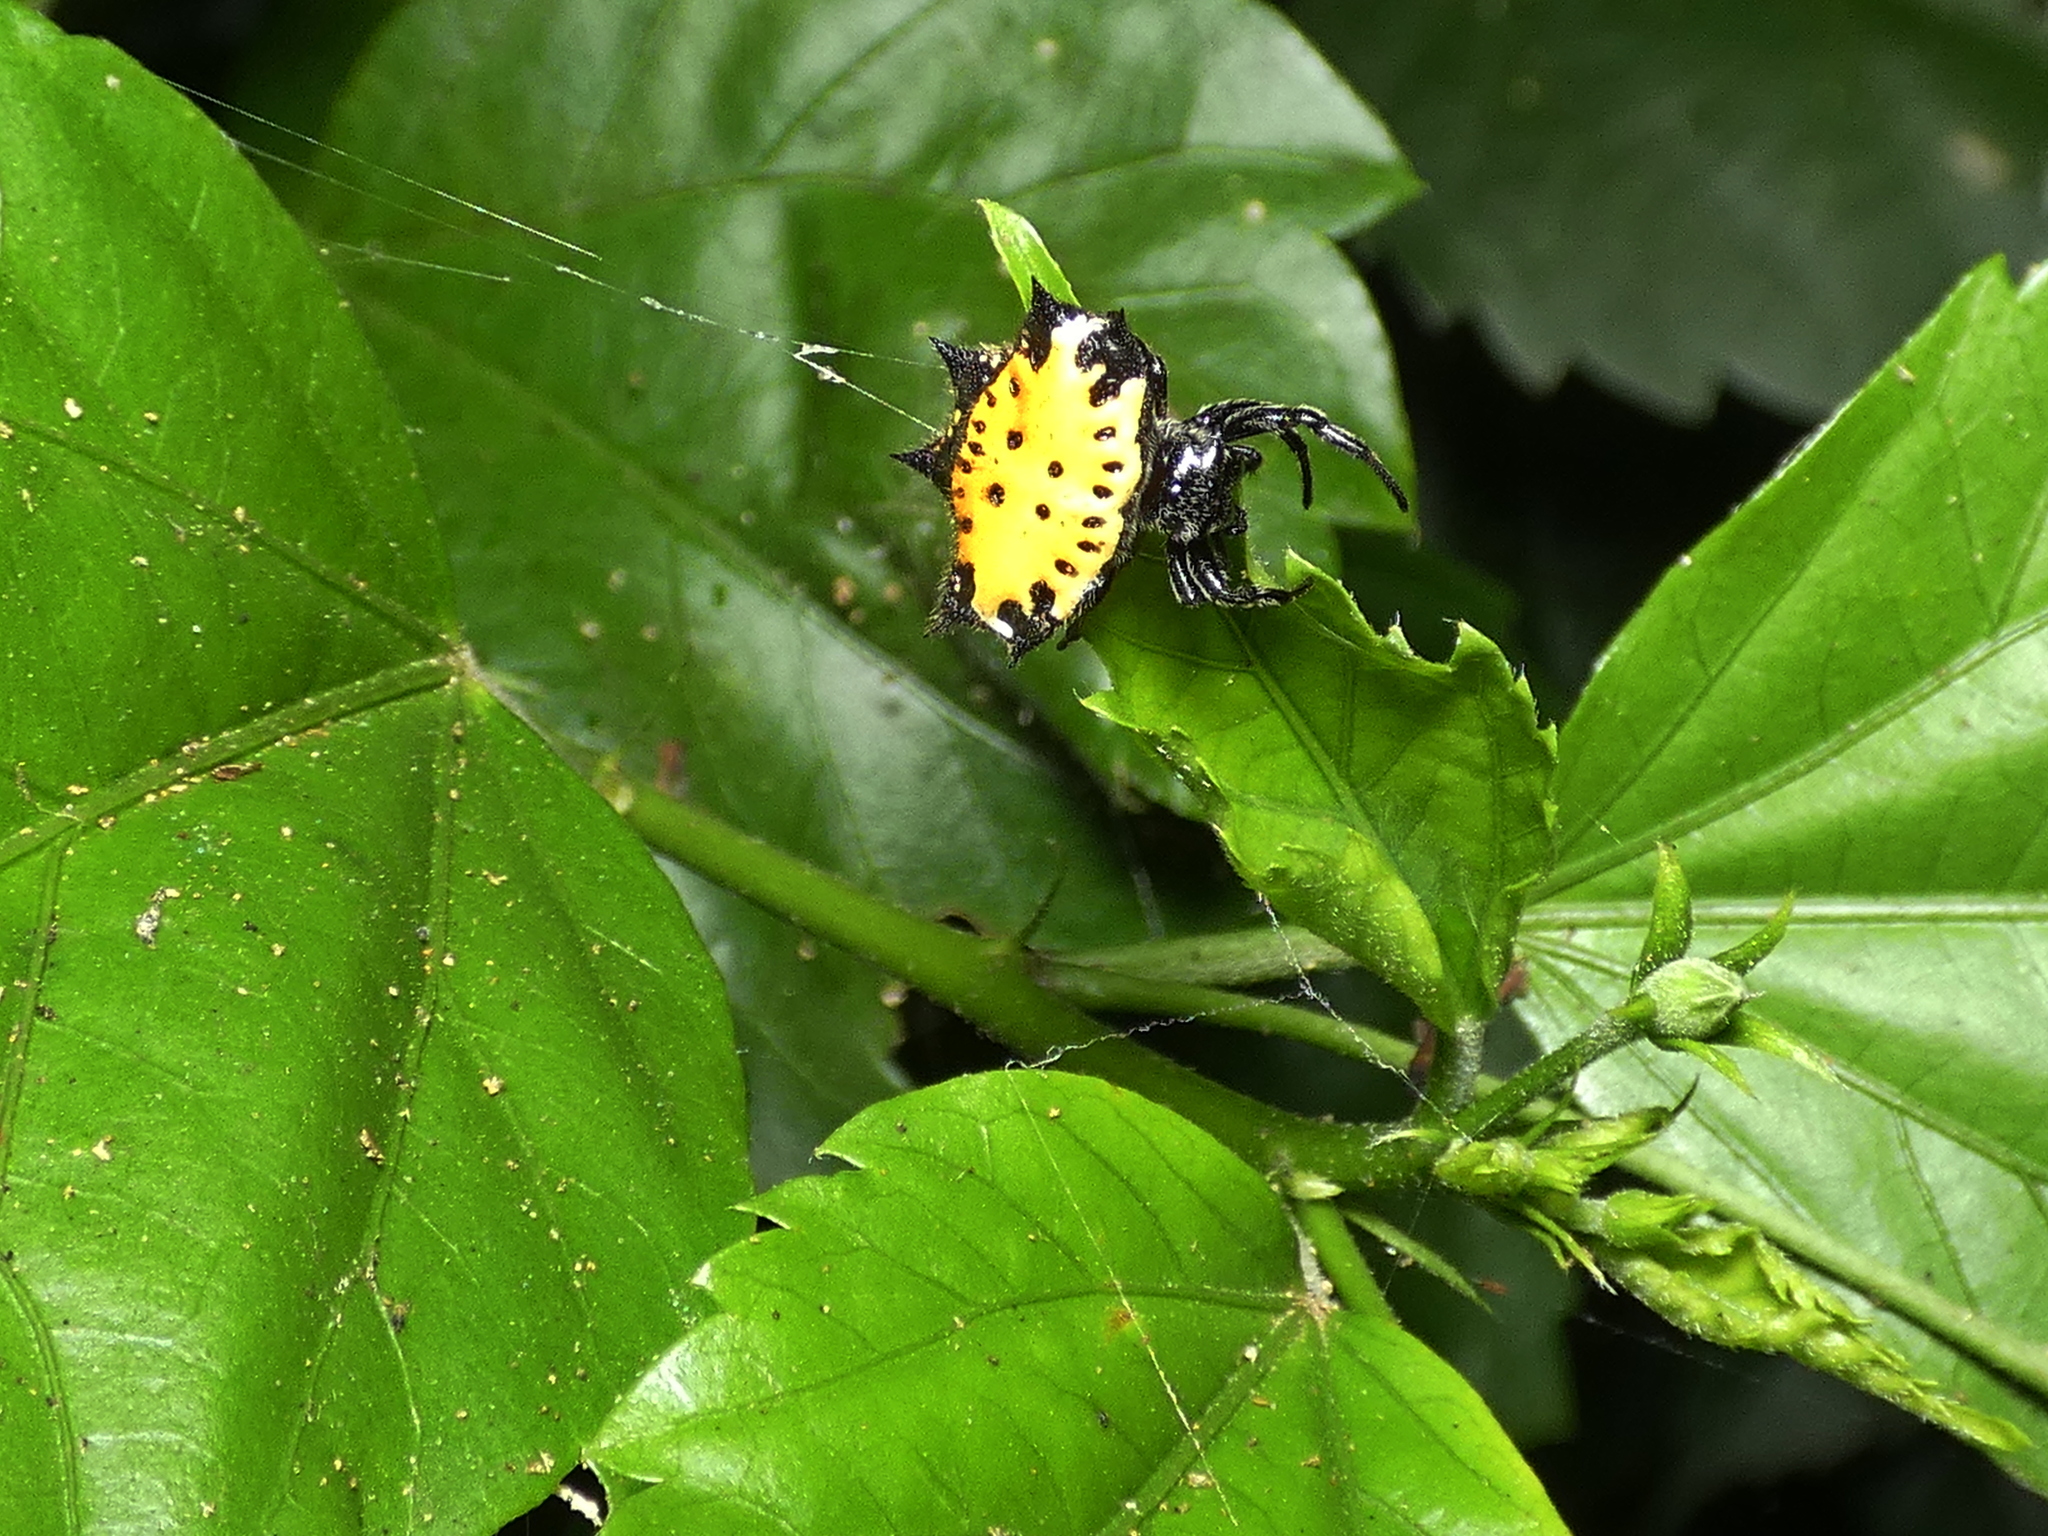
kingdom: Animalia
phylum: Arthropoda
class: Arachnida
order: Araneae
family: Araneidae
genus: Gasteracantha
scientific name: Gasteracantha cancriformis
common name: Orb weavers
